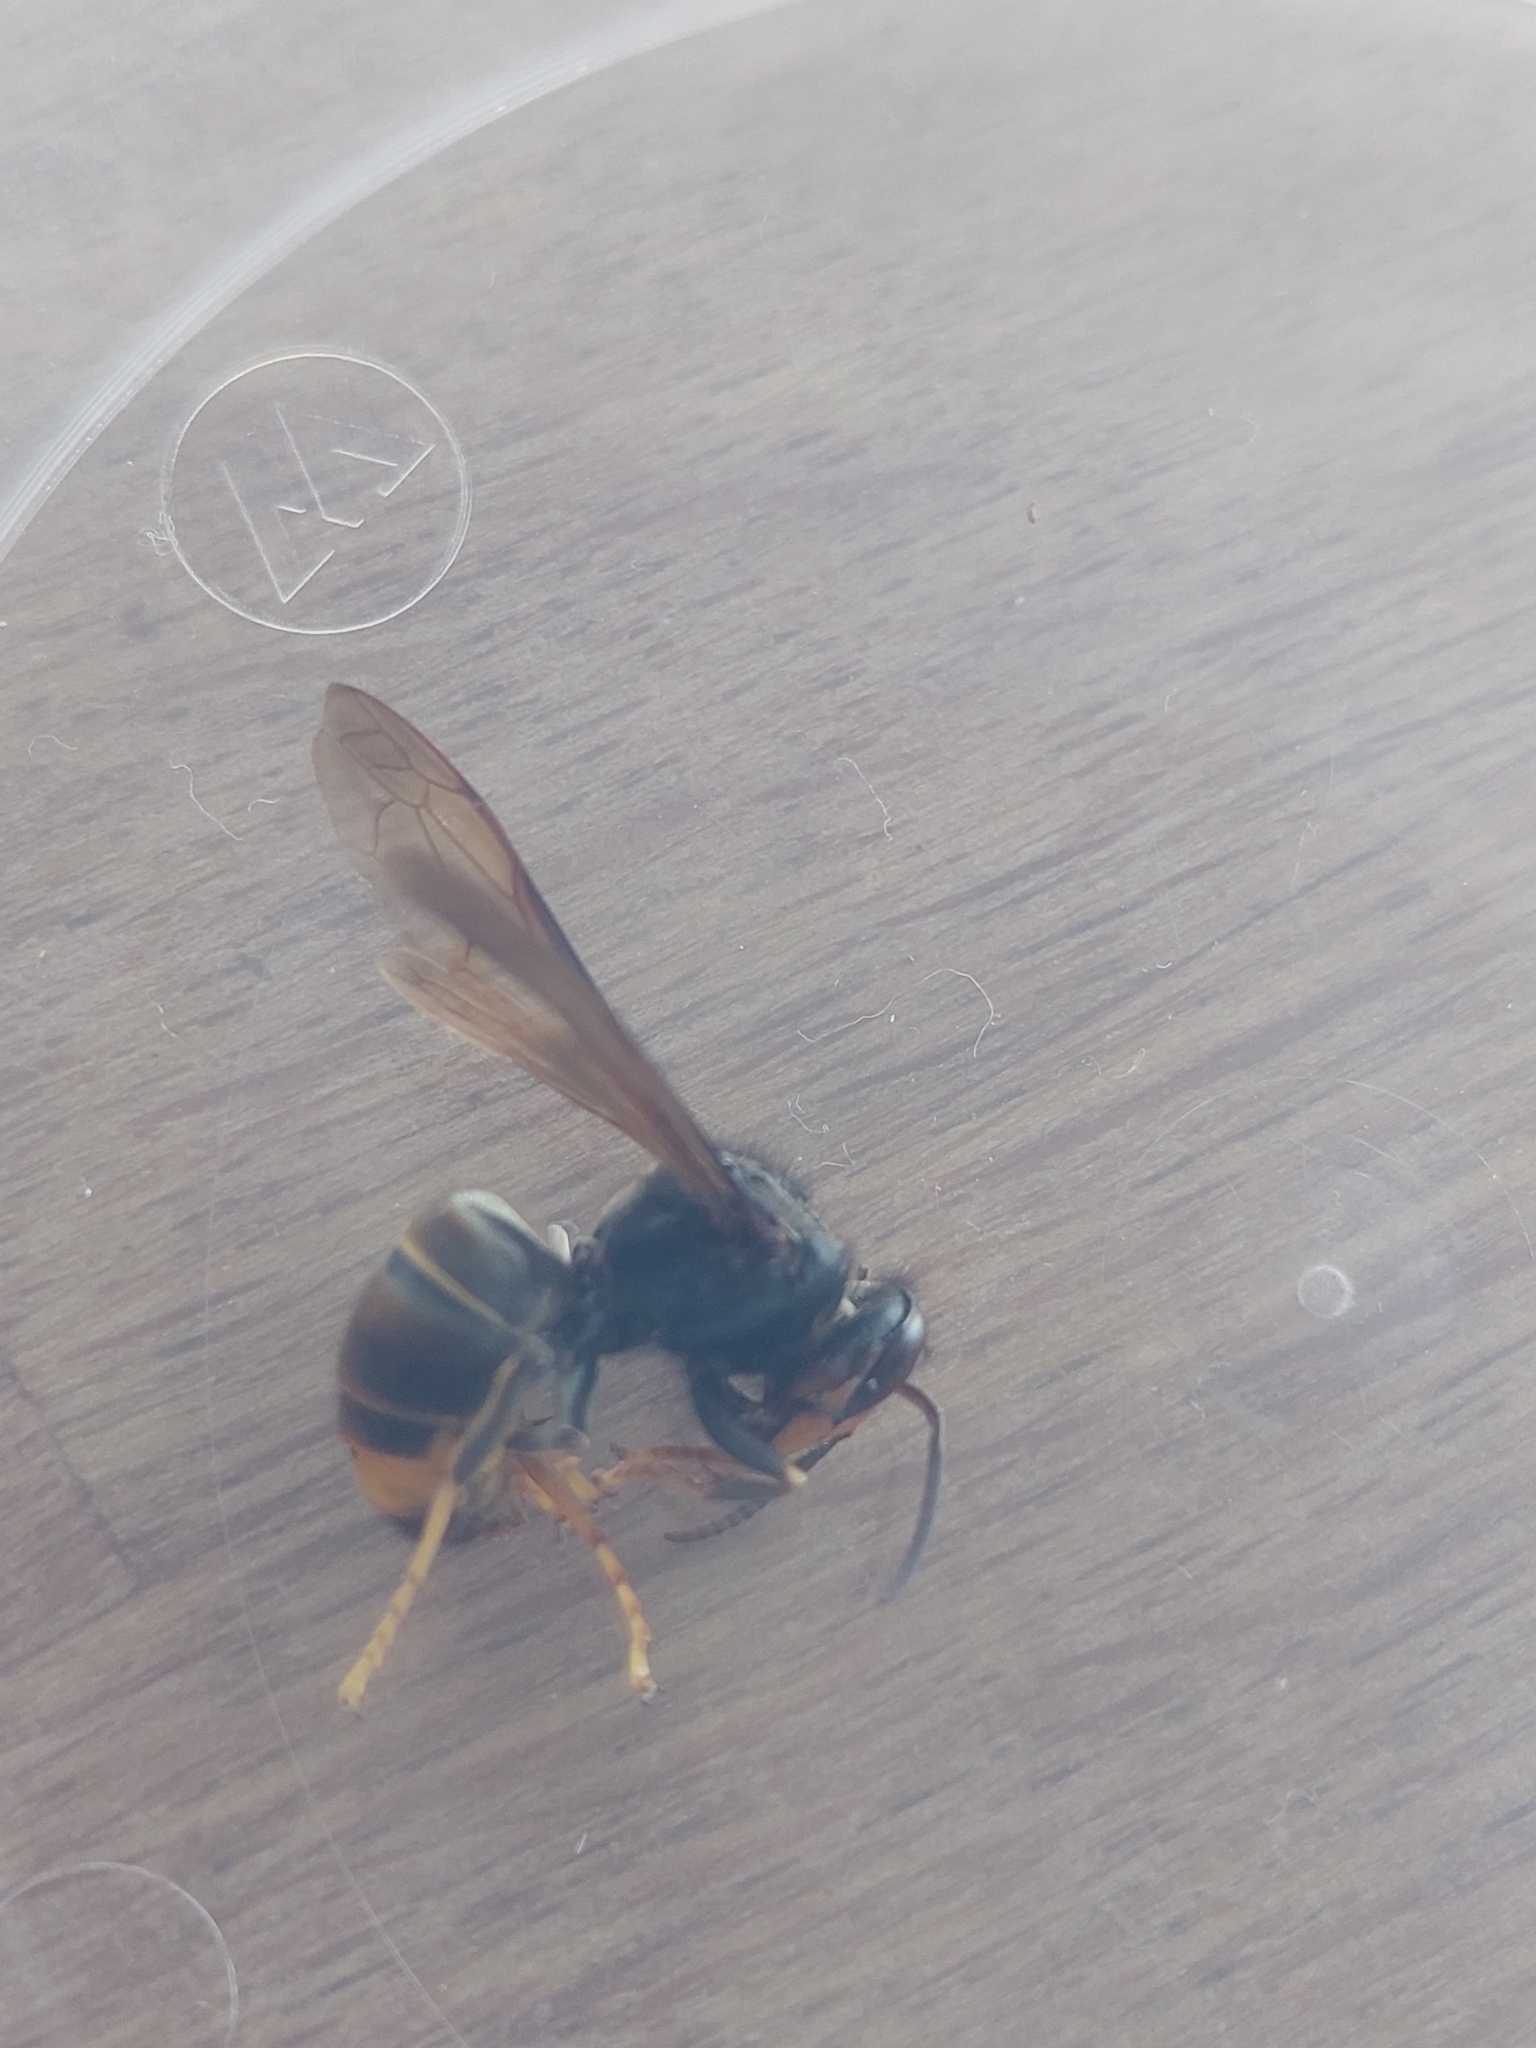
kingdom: Animalia
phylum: Arthropoda
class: Insecta
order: Hymenoptera
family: Vespidae
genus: Vespa
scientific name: Vespa velutina
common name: Asian hornet
